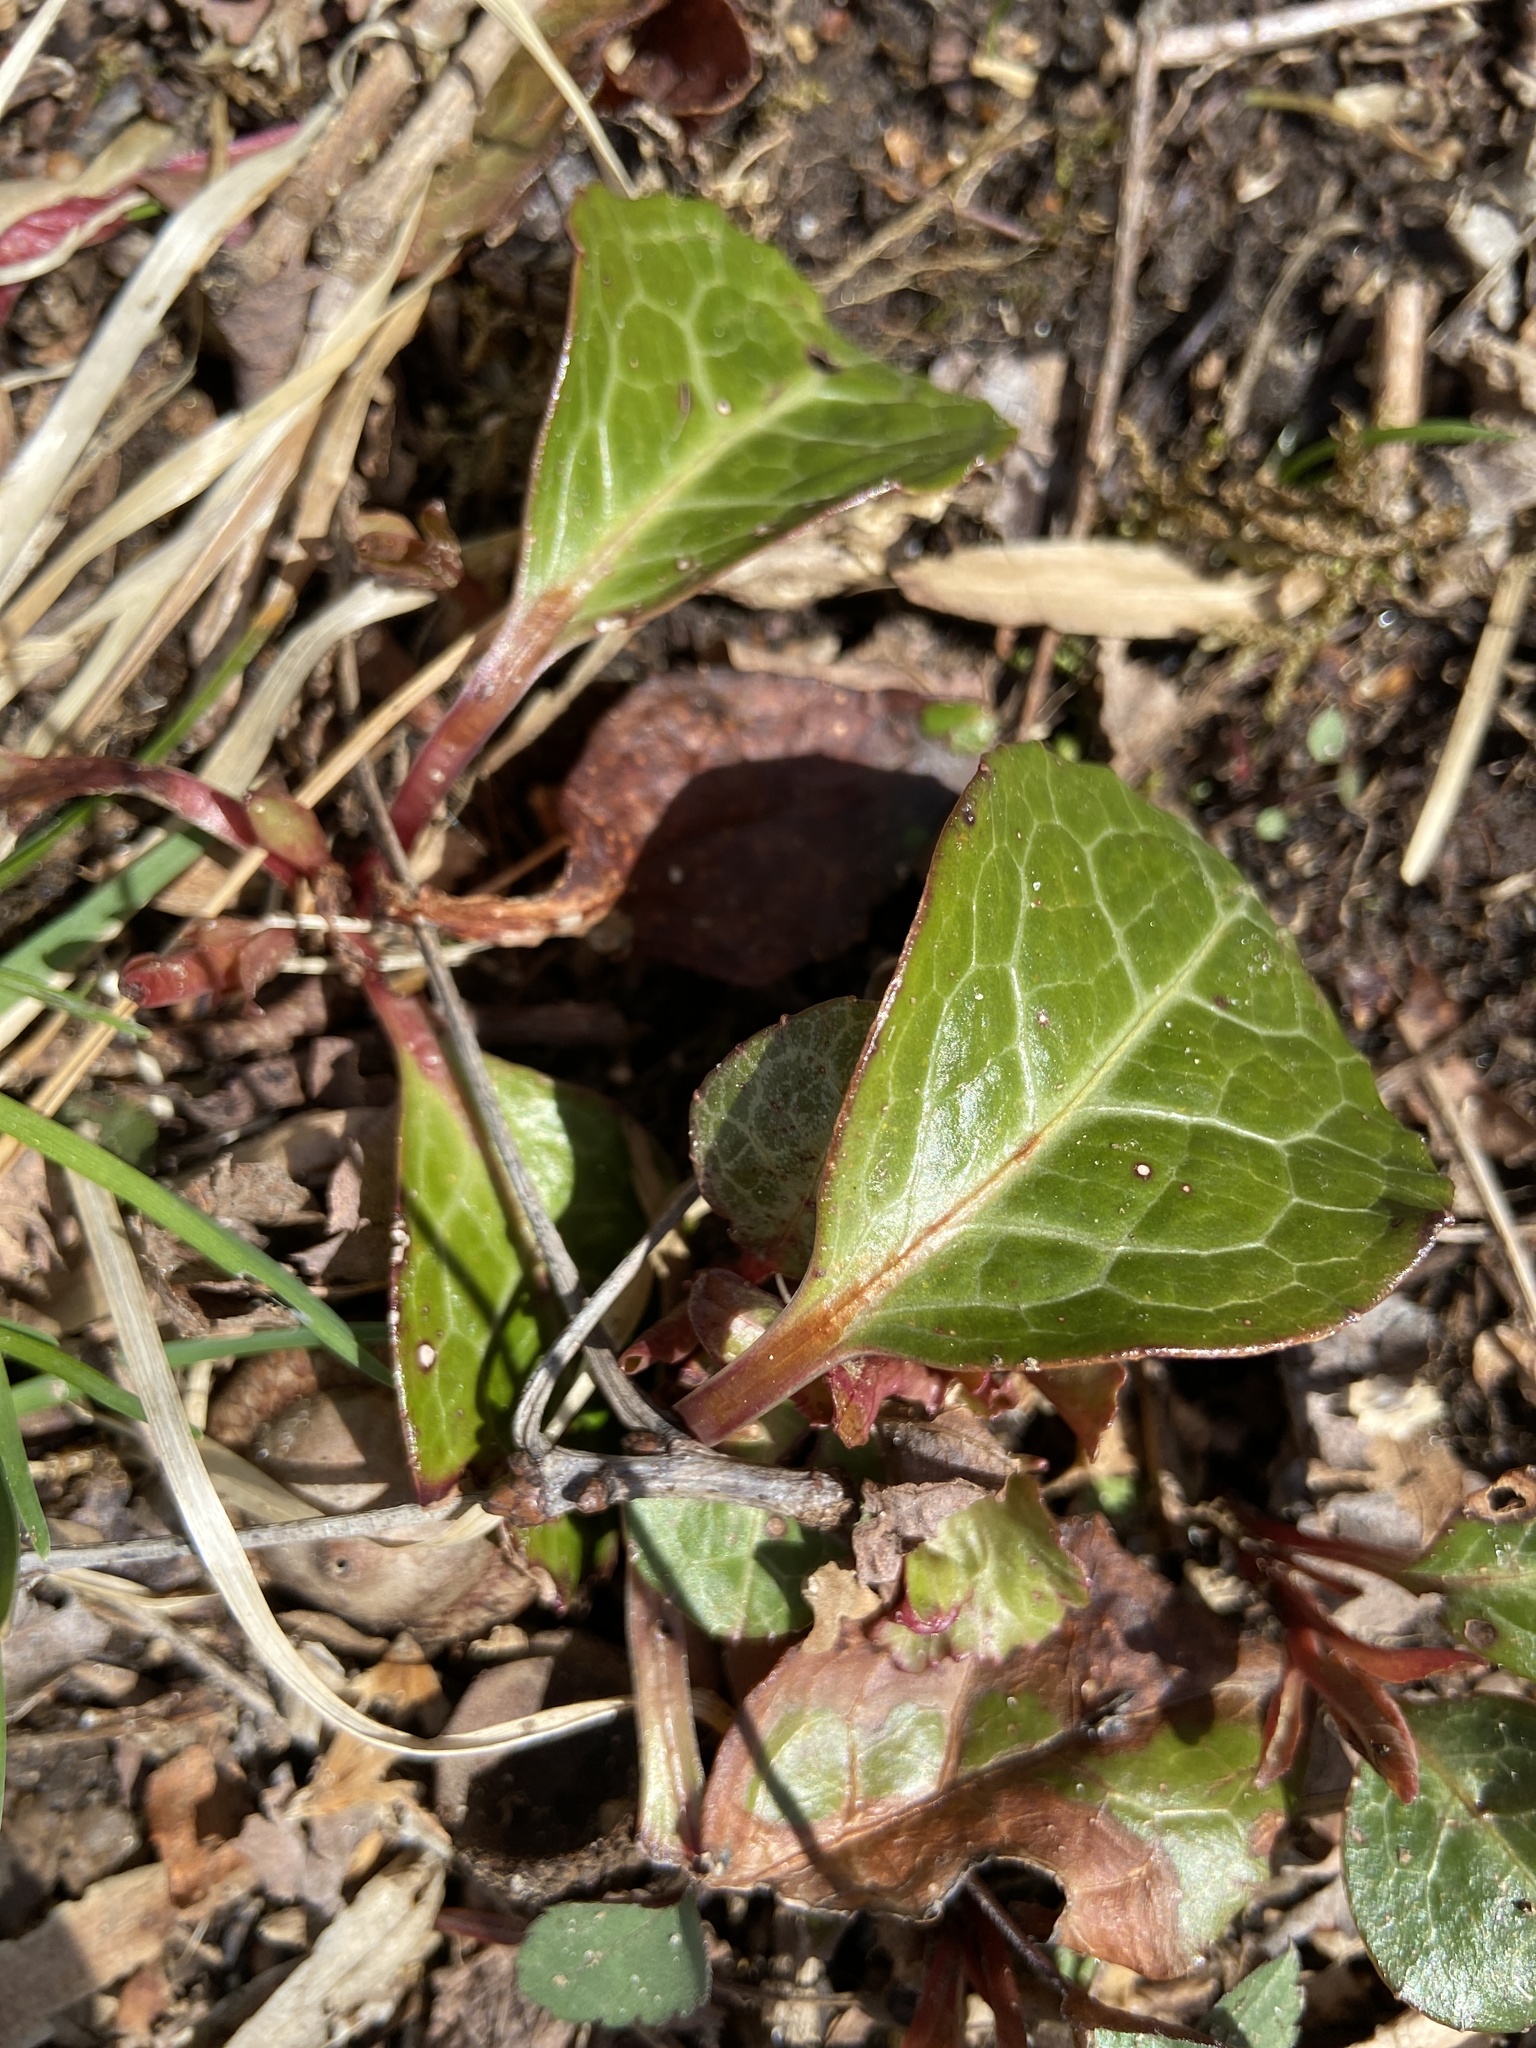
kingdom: Plantae
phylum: Tracheophyta
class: Magnoliopsida
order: Ericales
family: Ericaceae
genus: Pyrola
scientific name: Pyrola americana
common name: American wintergreen
